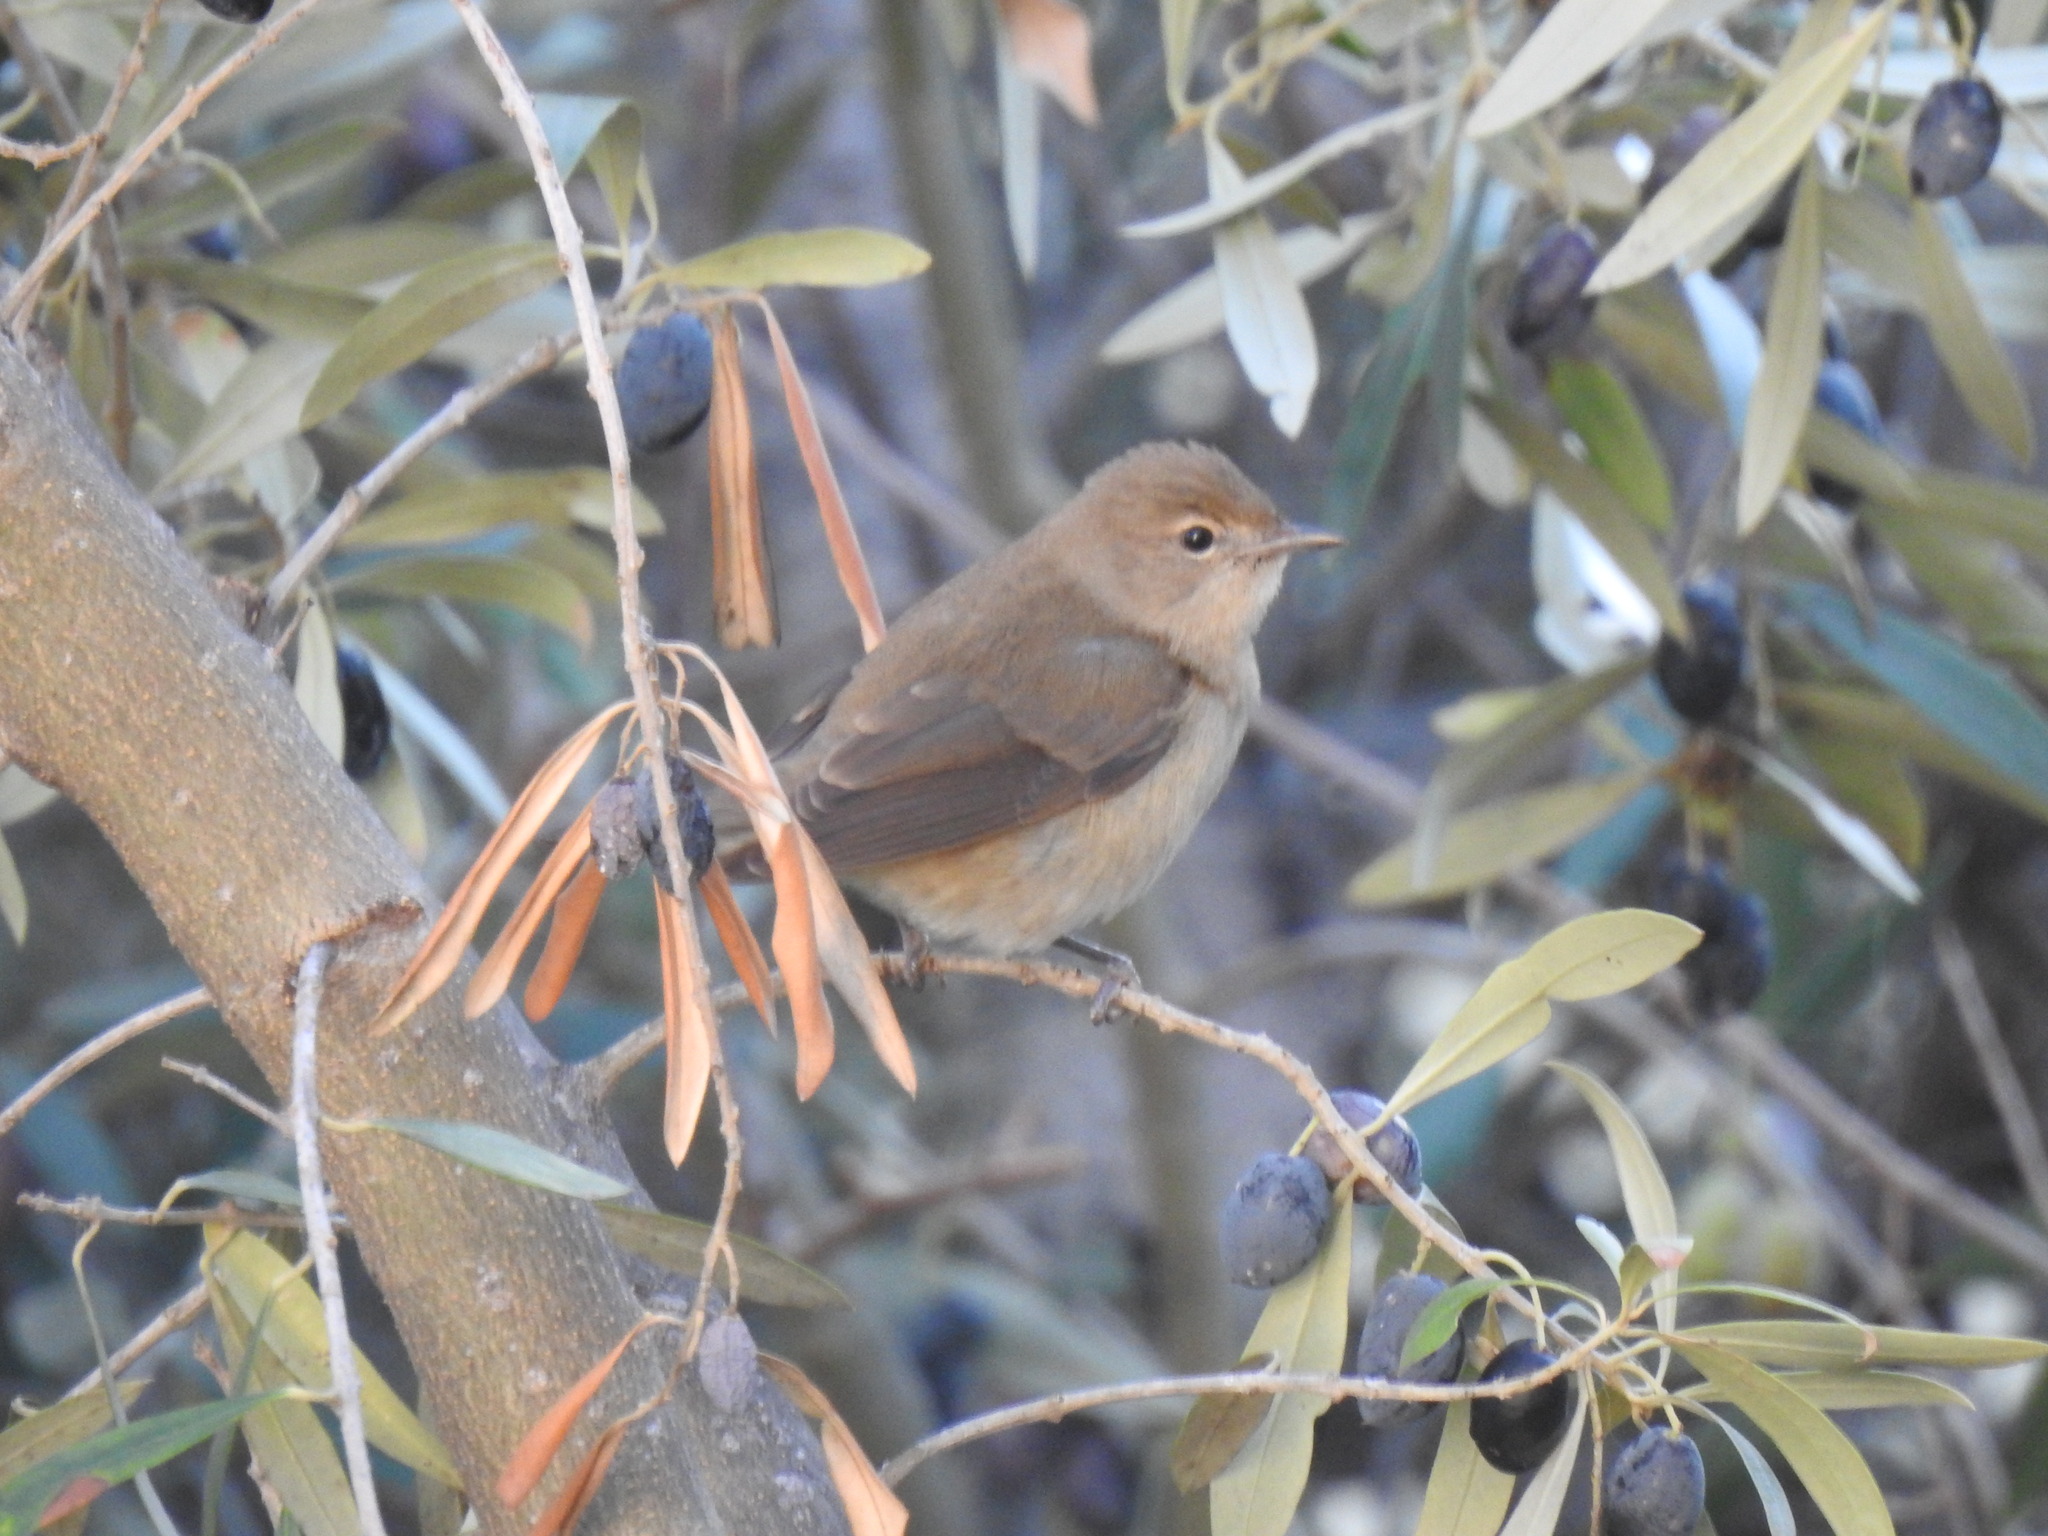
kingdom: Animalia
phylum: Chordata
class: Aves
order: Passeriformes
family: Sylviidae
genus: Sylvia
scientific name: Sylvia borin
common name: Garden warbler
